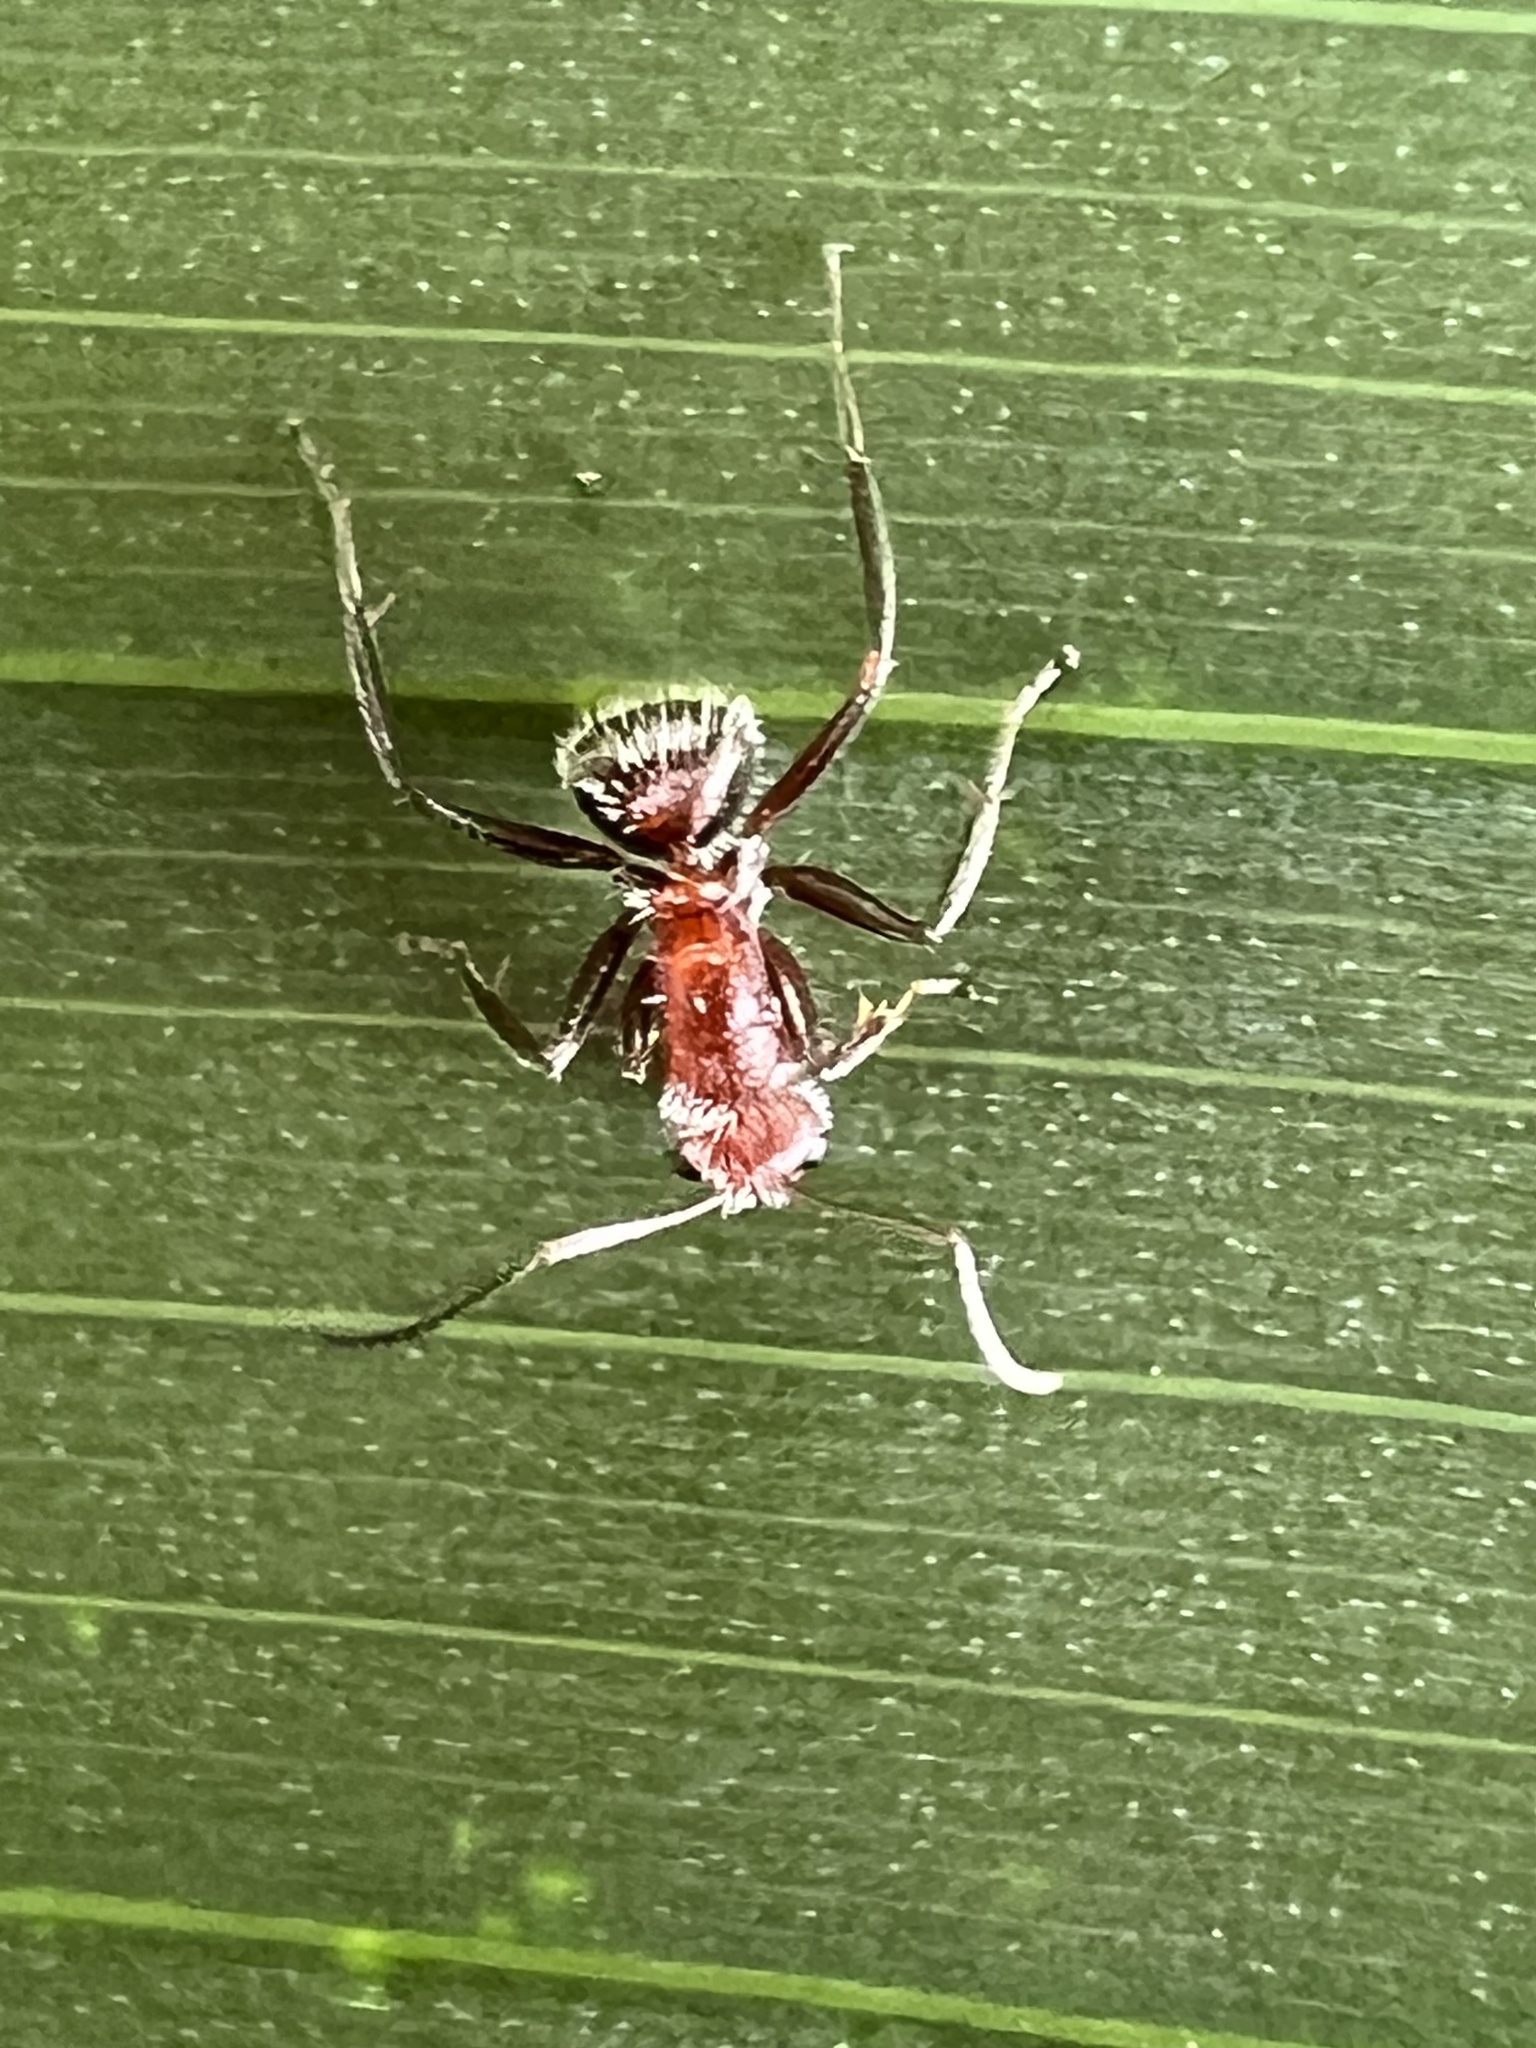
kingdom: Animalia
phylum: Arthropoda
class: Insecta
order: Hymenoptera
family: Formicidae
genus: Camponotus
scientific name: Camponotus planatus
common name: Compact carpenter ant
